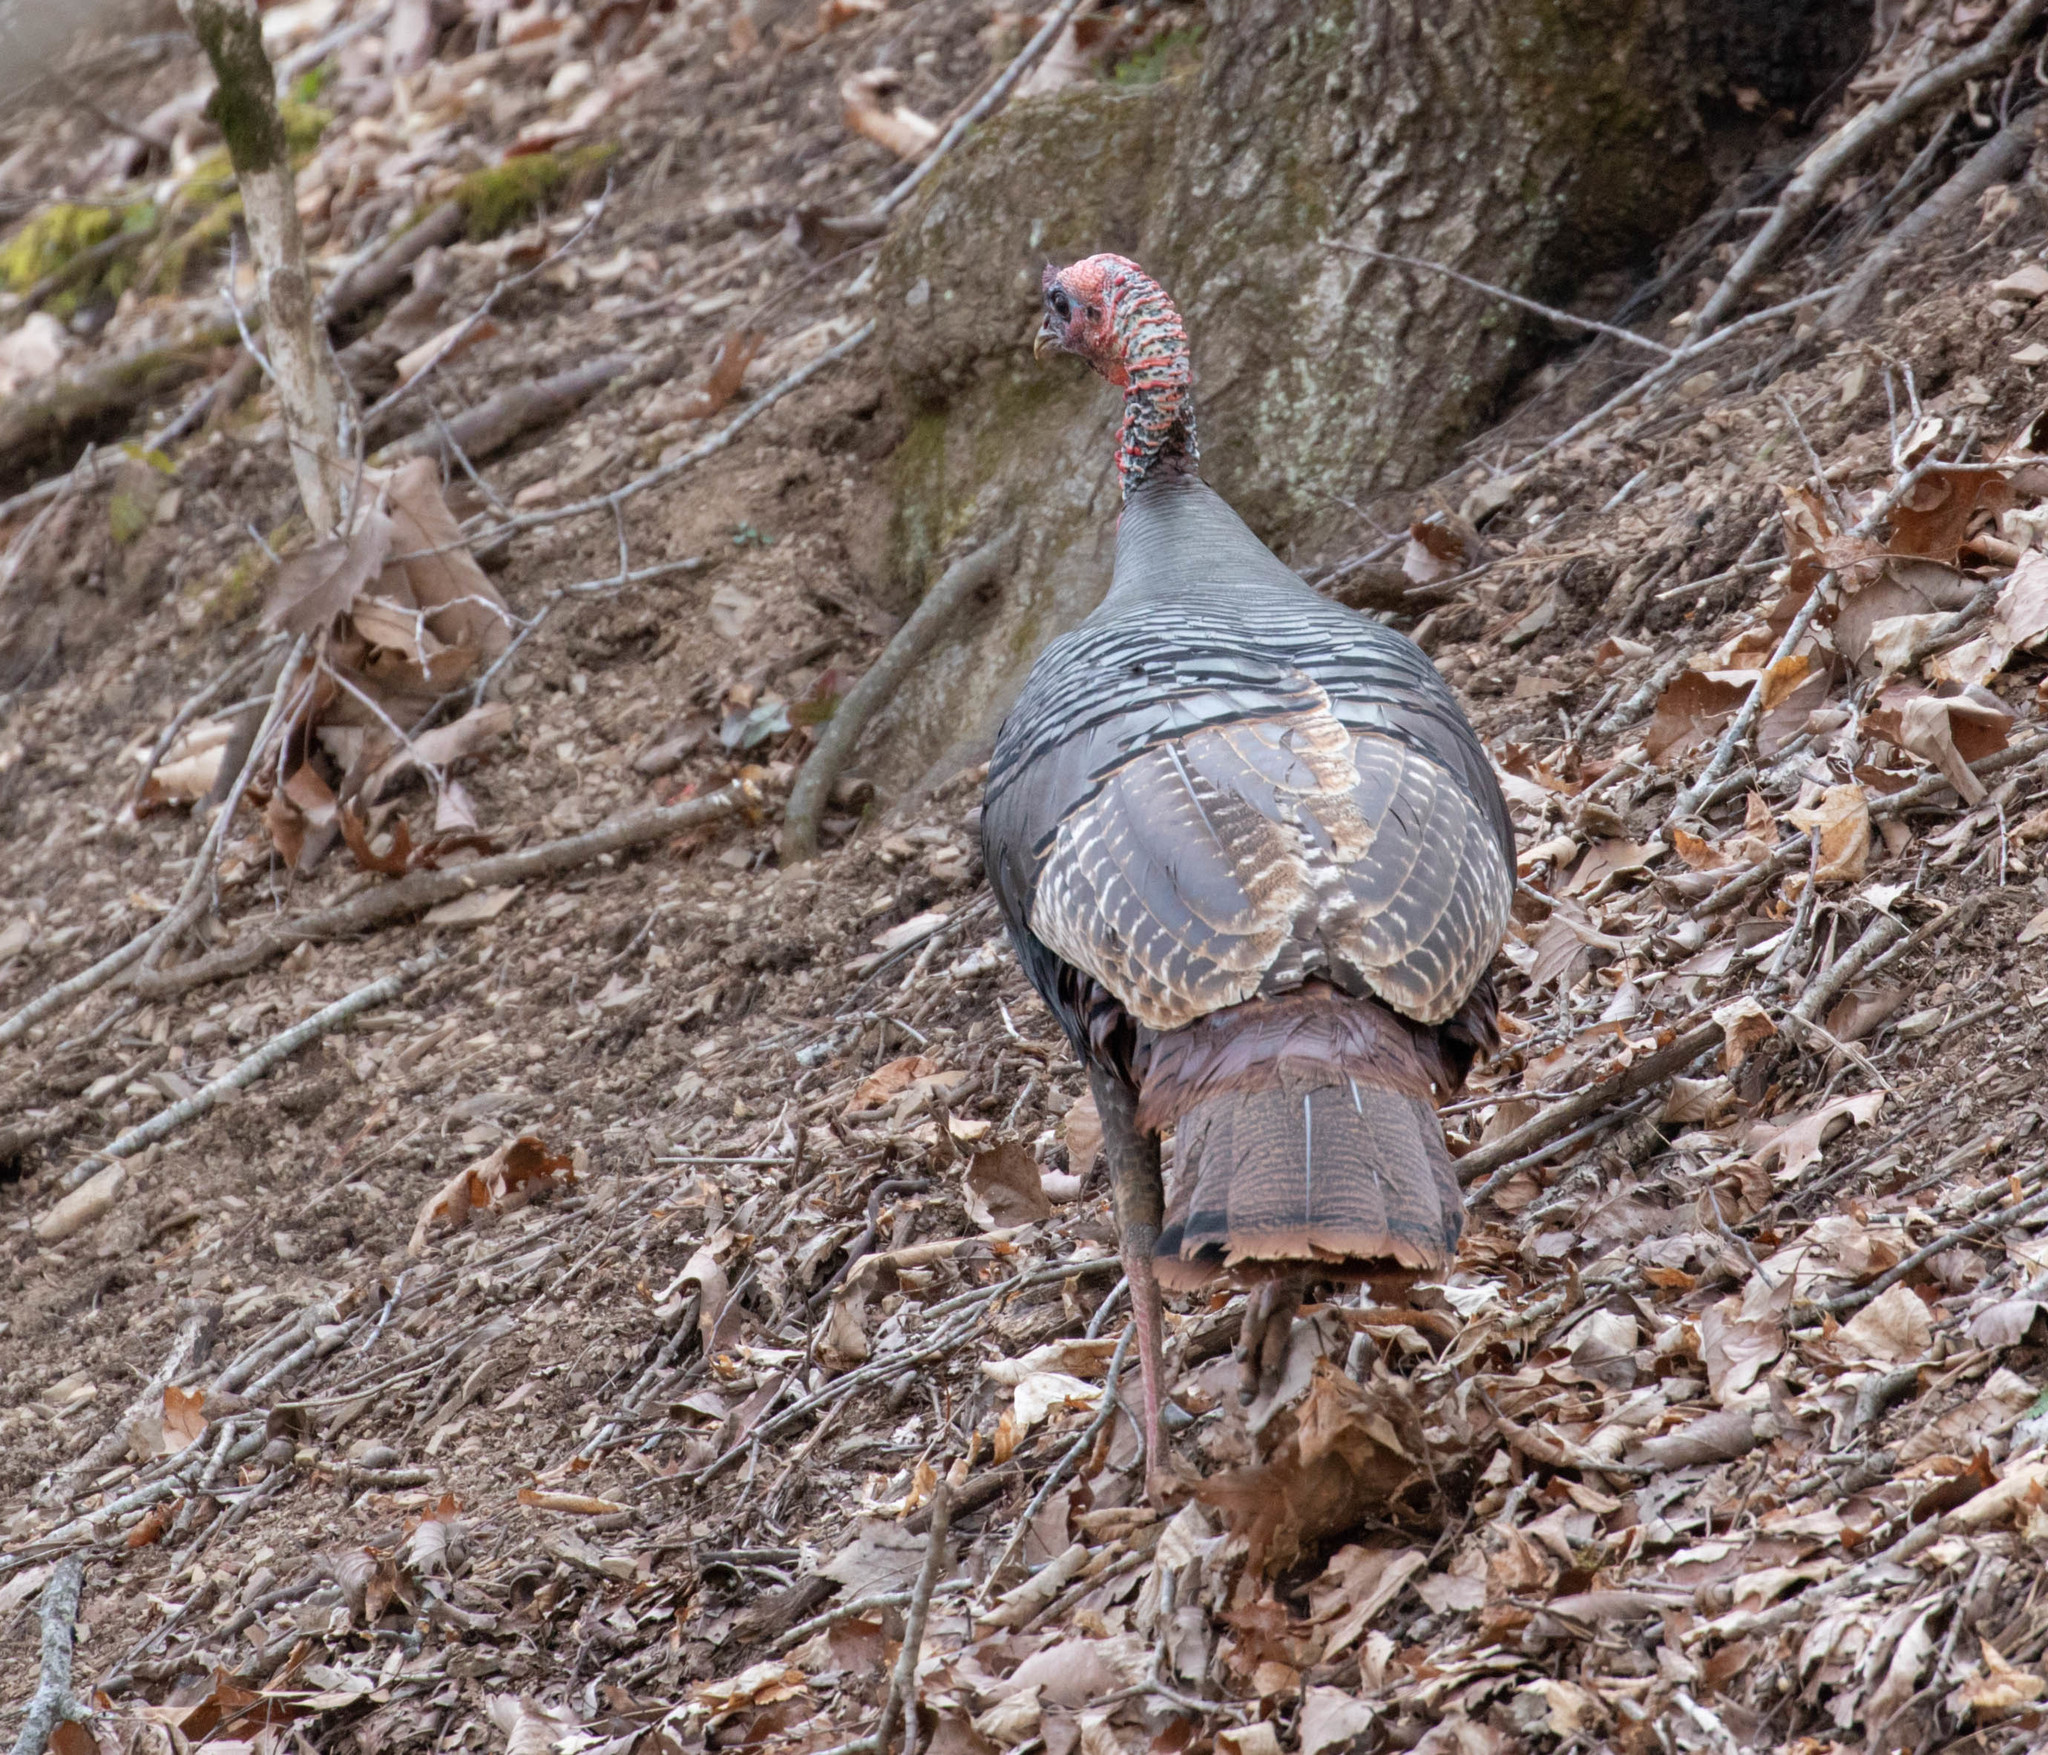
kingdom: Animalia
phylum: Chordata
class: Aves
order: Galliformes
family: Phasianidae
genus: Meleagris
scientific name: Meleagris gallopavo
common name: Wild turkey
